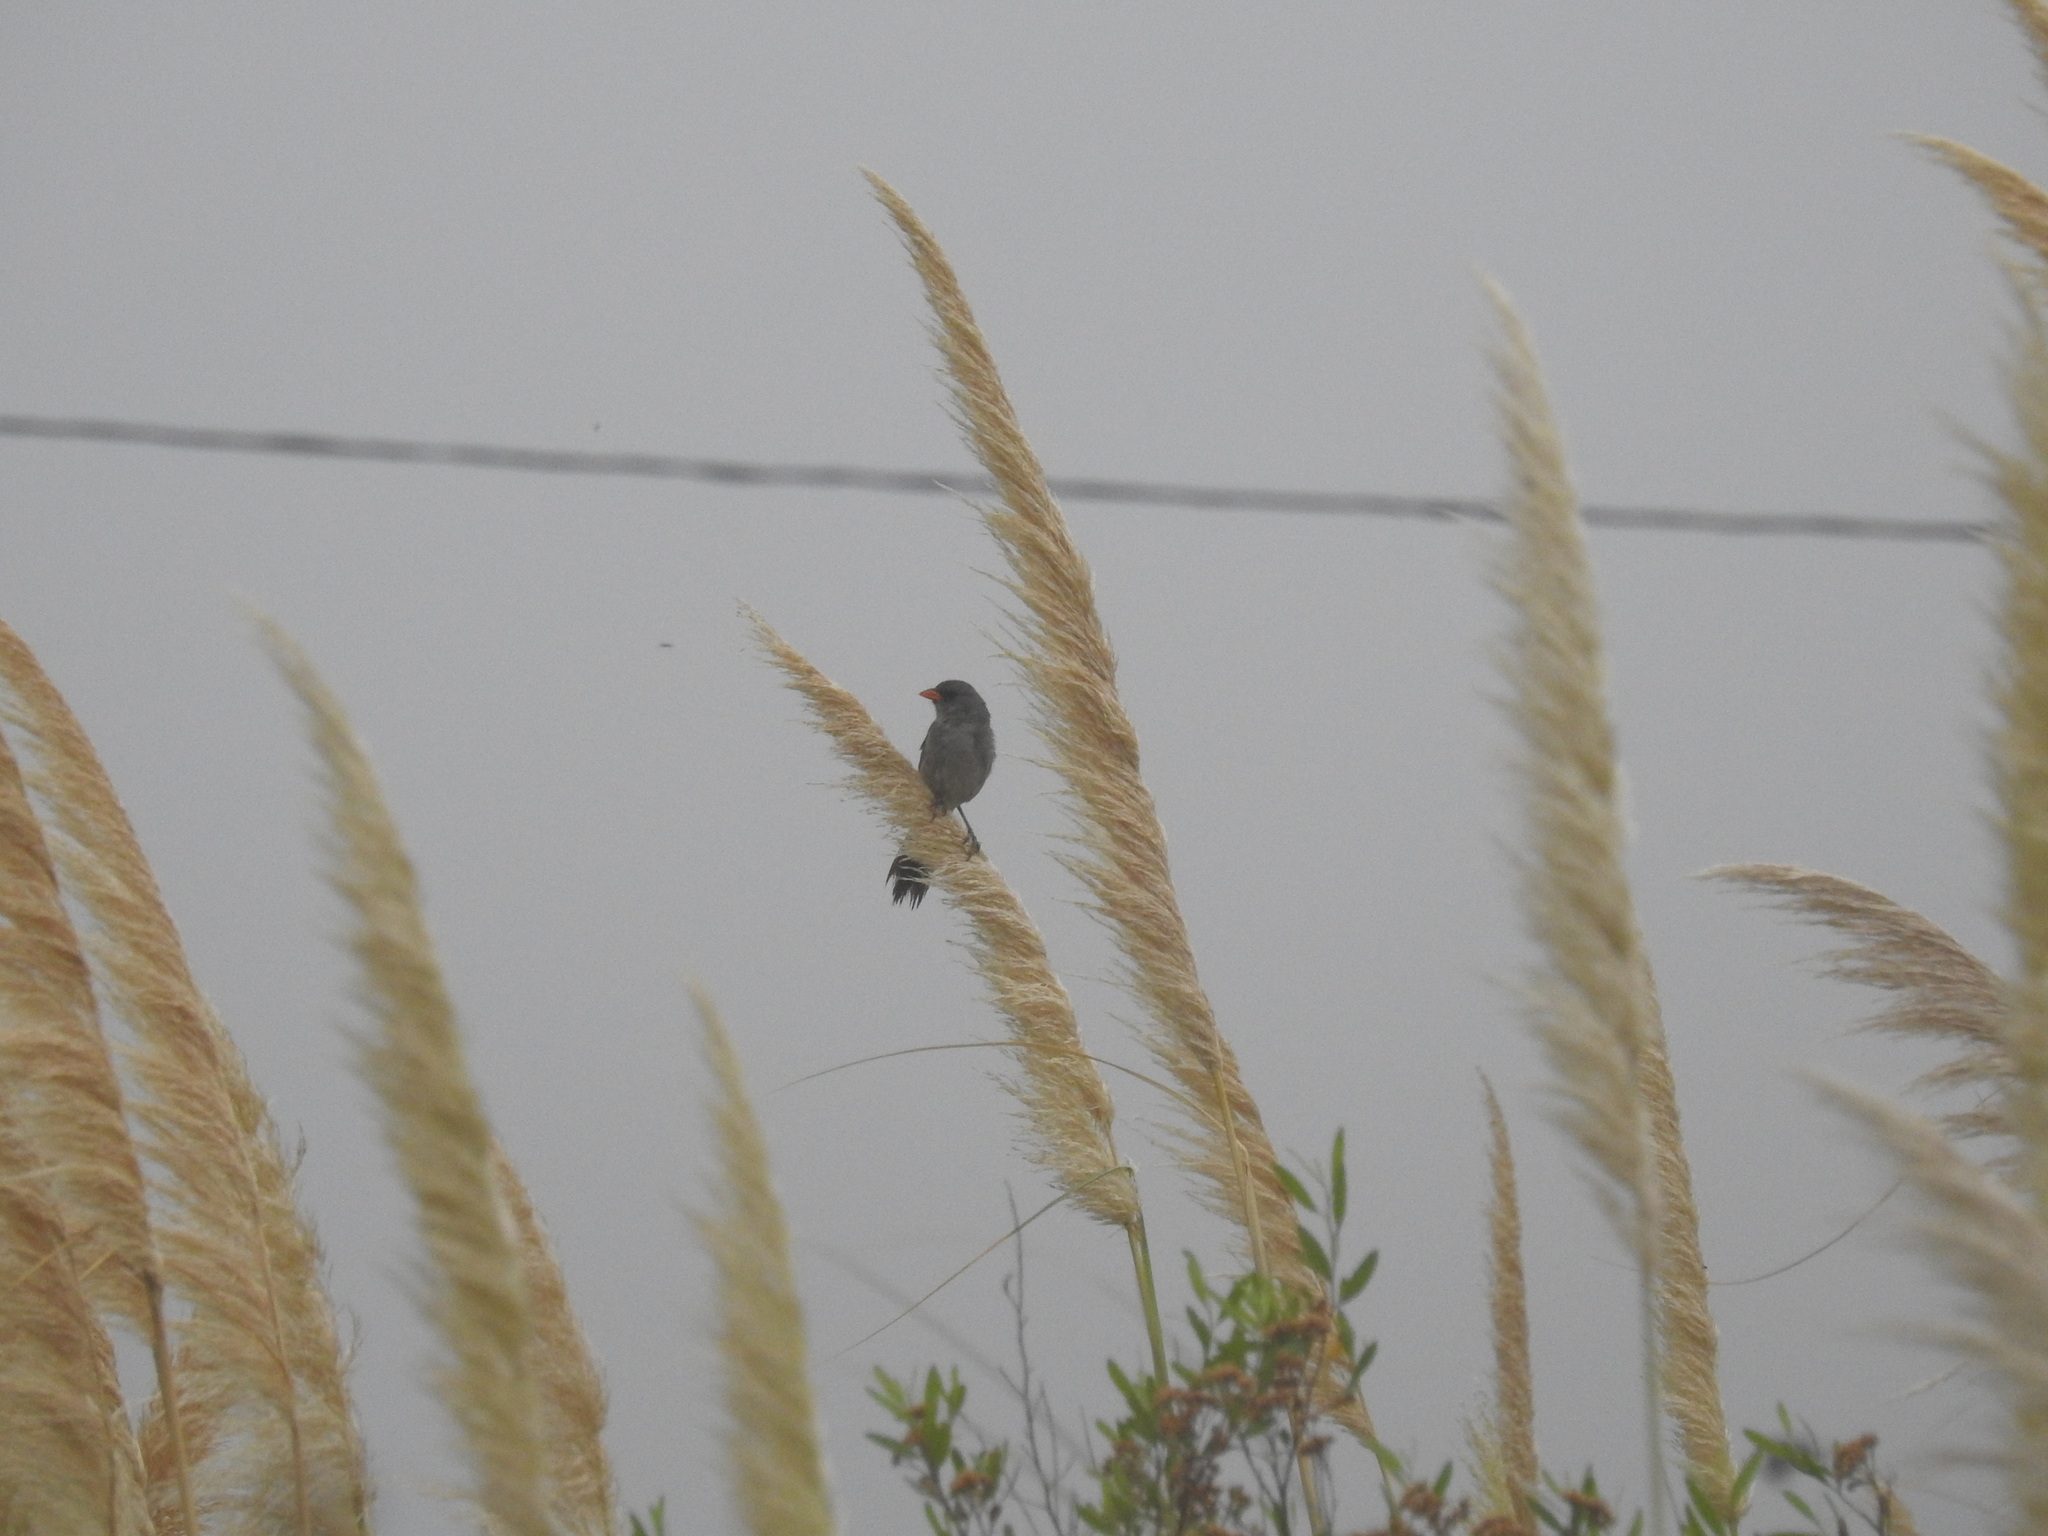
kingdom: Animalia
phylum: Chordata
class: Aves
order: Passeriformes
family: Thraupidae
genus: Embernagra
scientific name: Embernagra platensis
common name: Pampa finch
